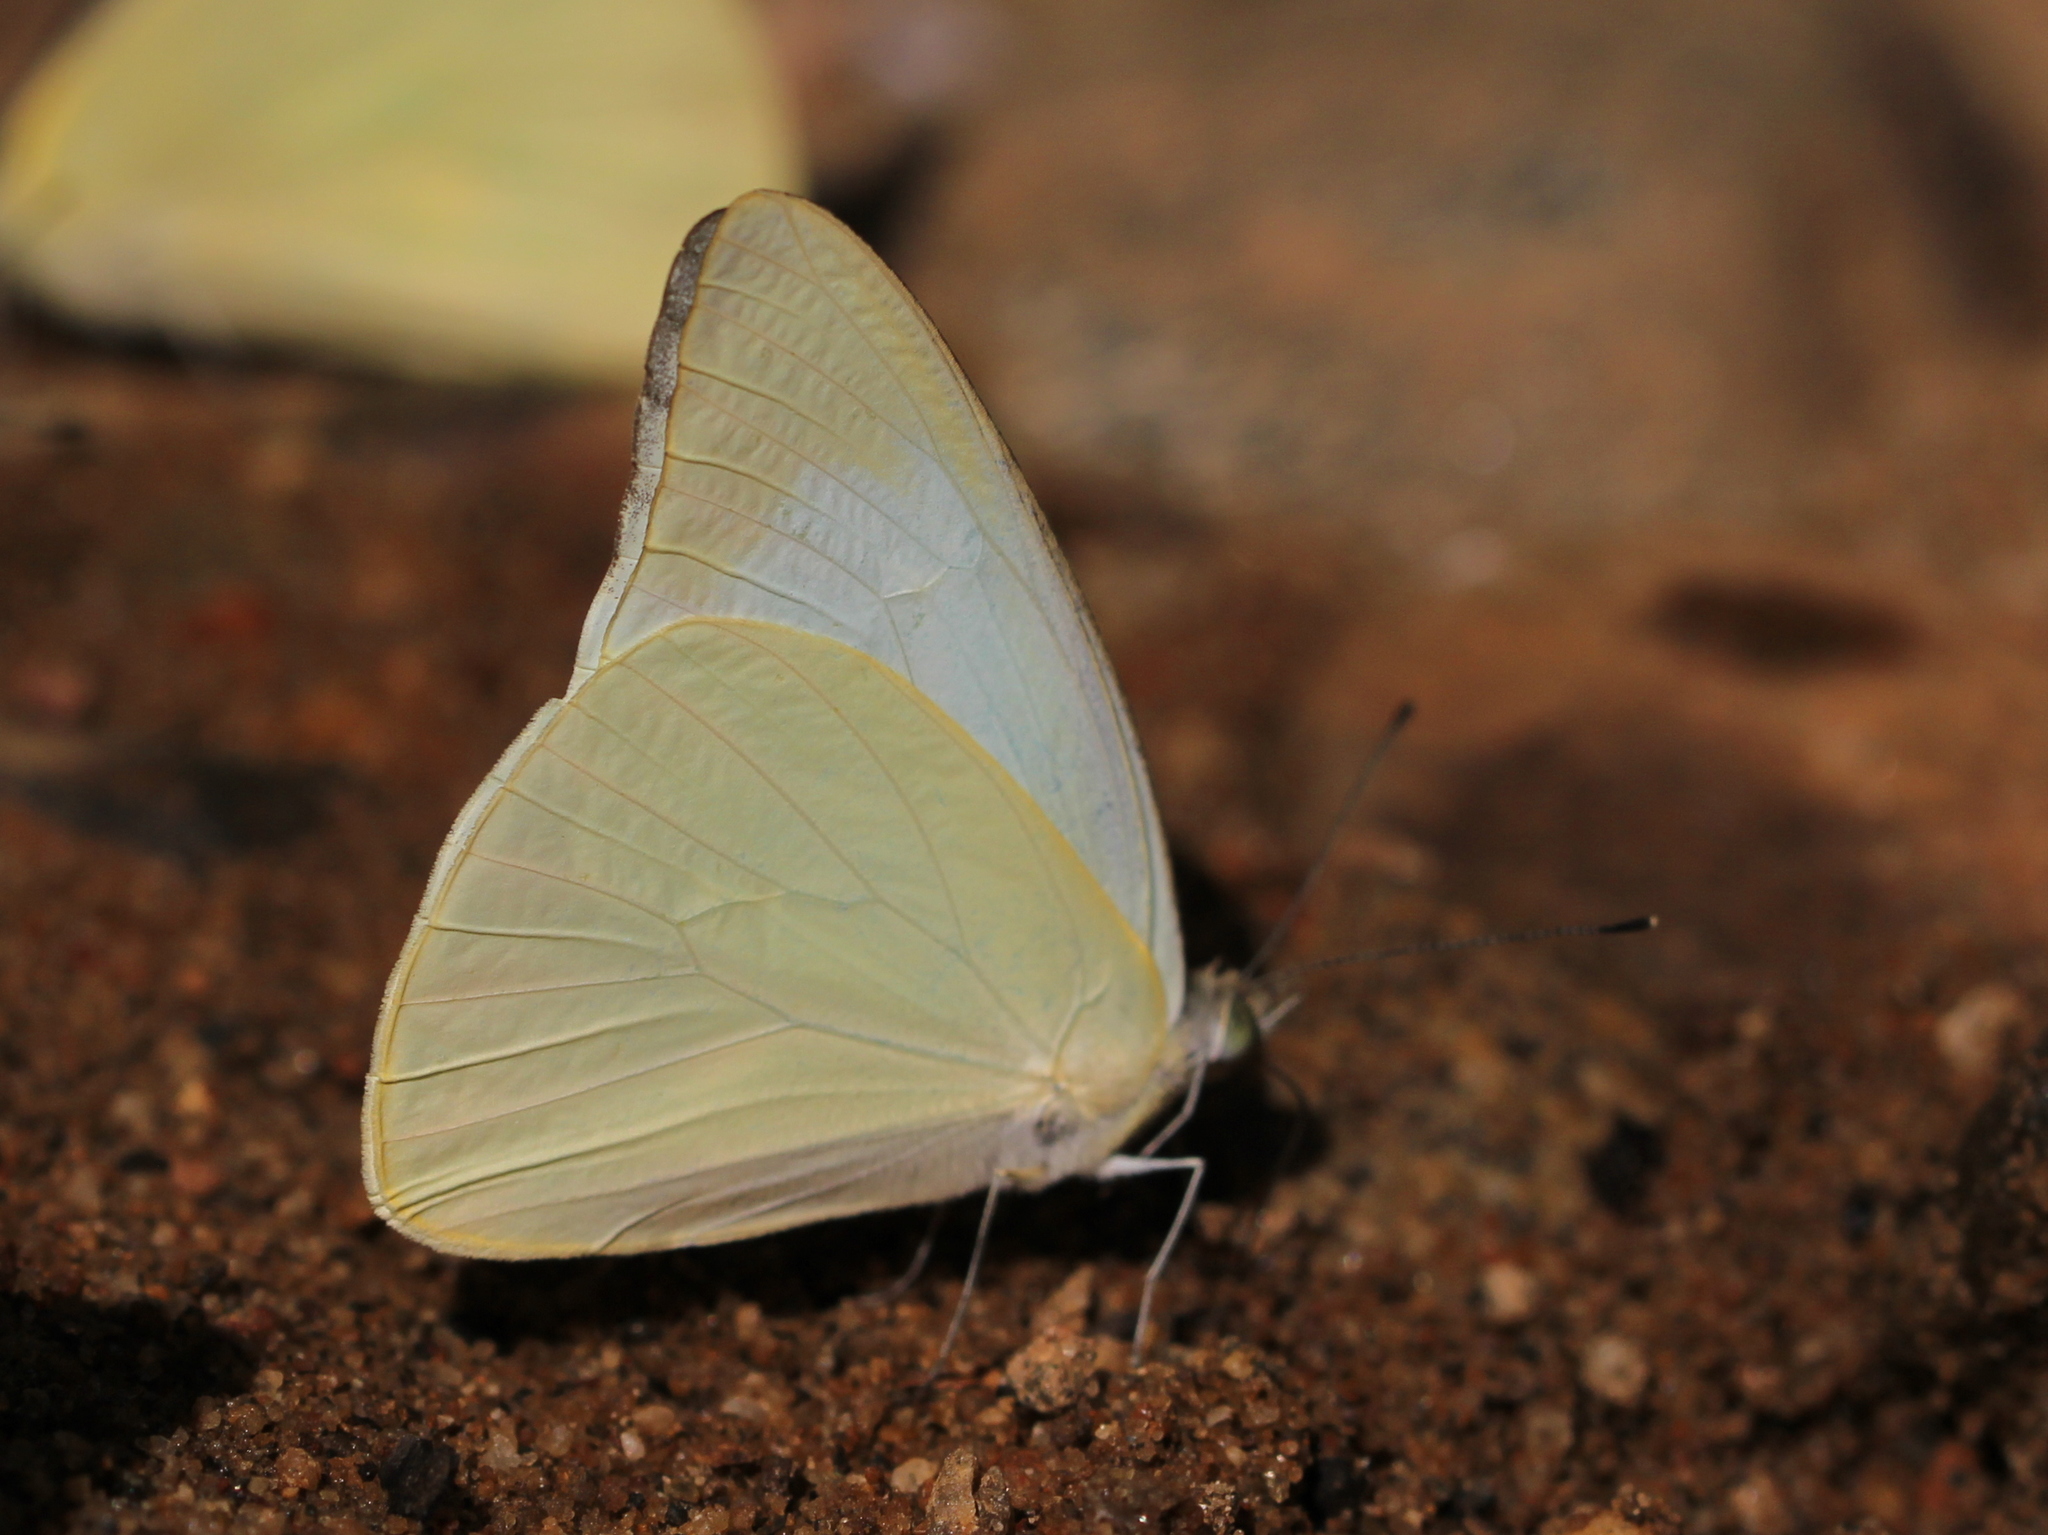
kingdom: Animalia
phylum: Arthropoda
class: Insecta
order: Lepidoptera
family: Pieridae
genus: Appias
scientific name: Appias albina
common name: Common albatross
